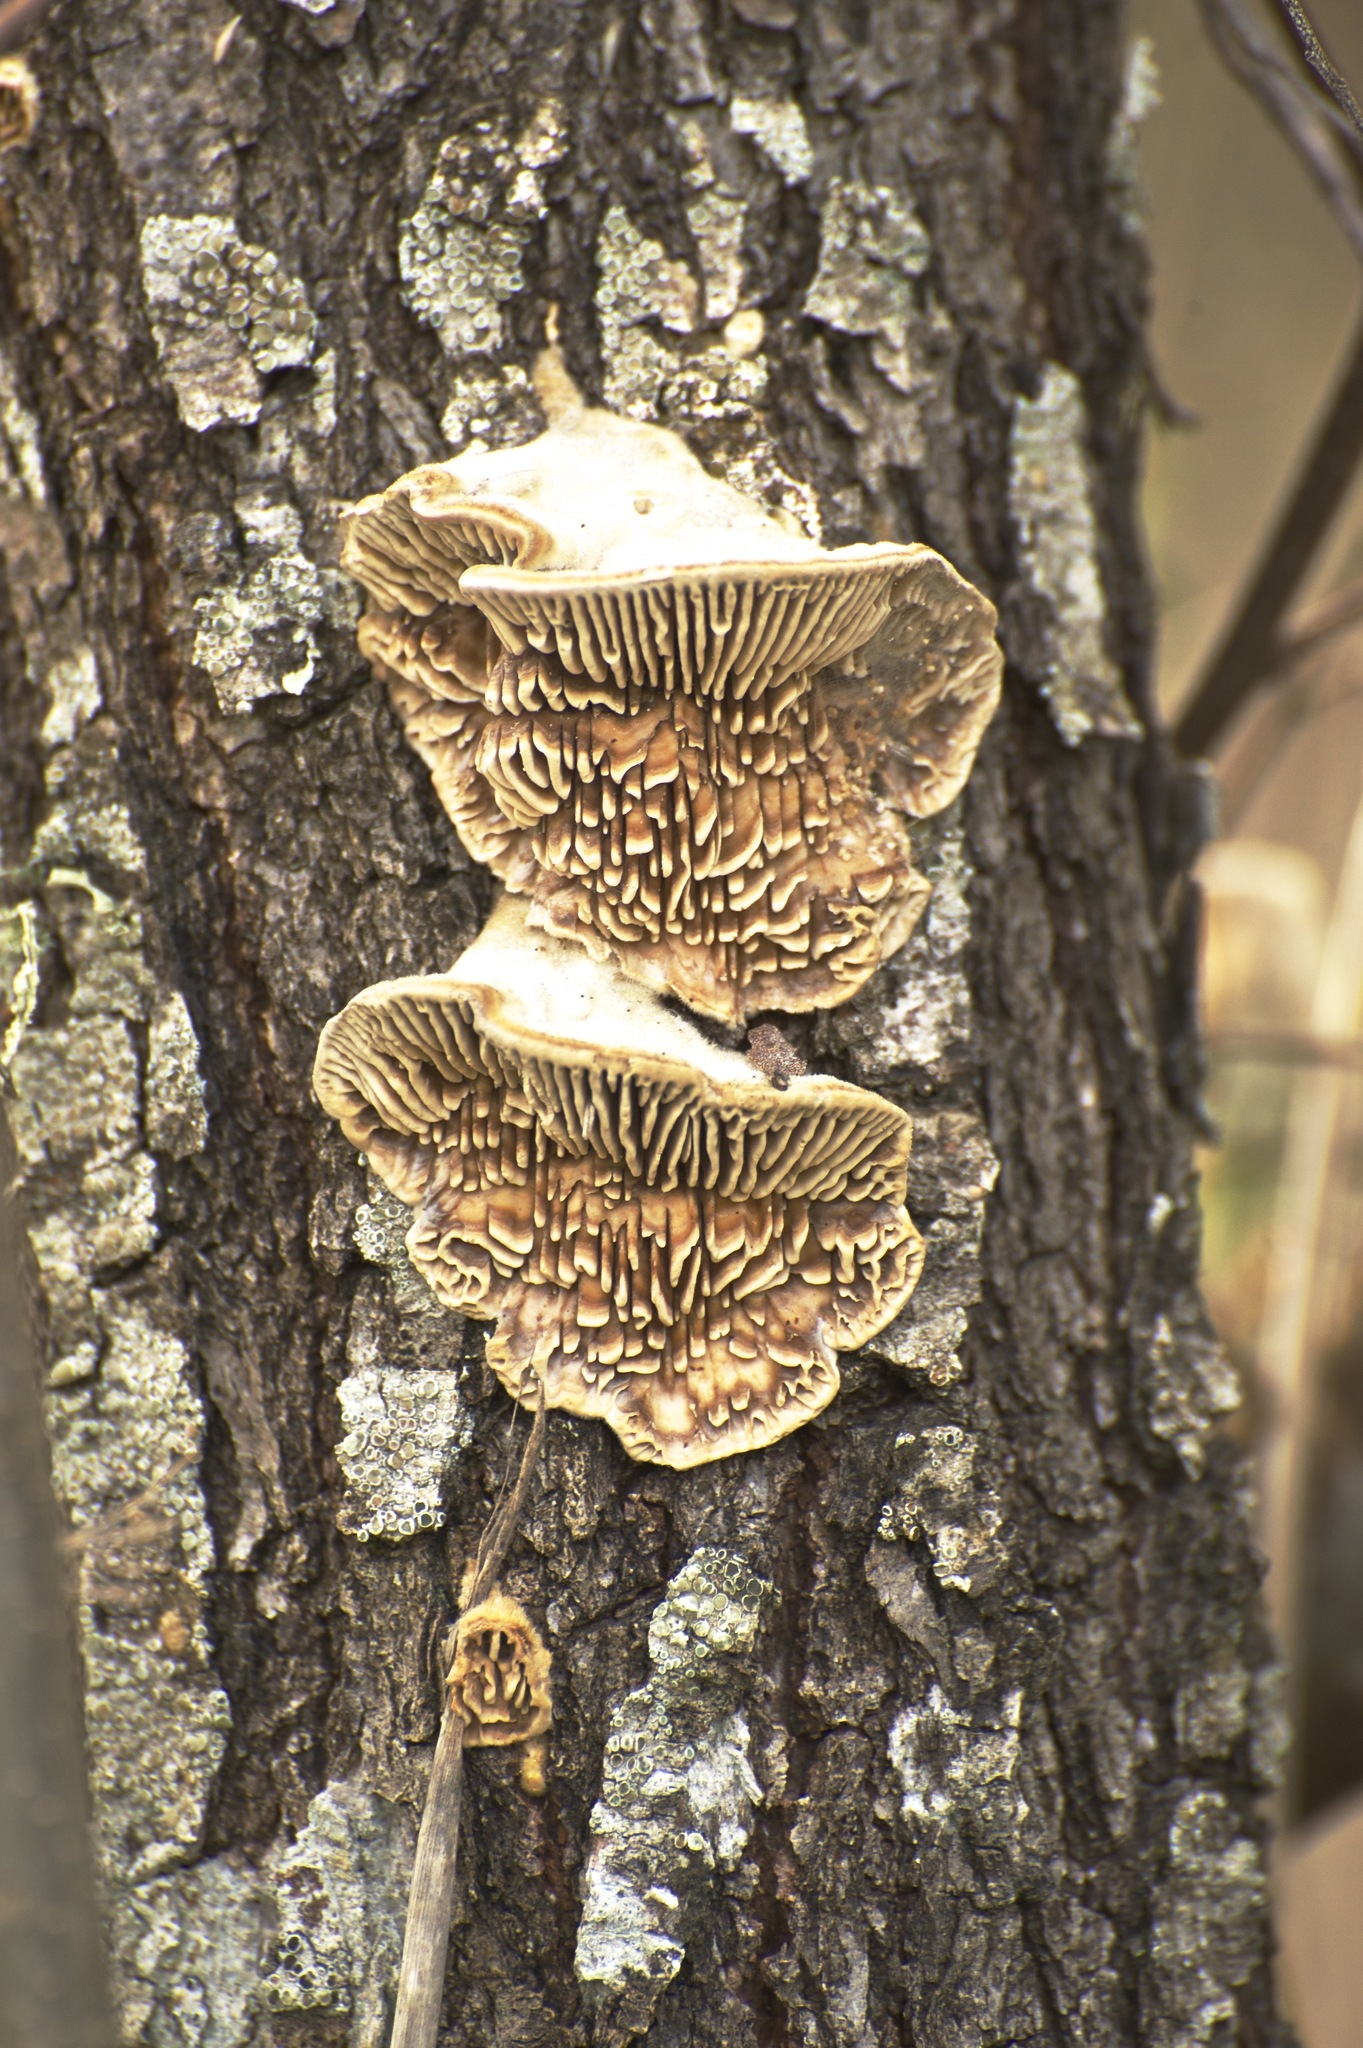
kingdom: Fungi
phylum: Basidiomycota
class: Agaricomycetes
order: Polyporales
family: Polyporaceae
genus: Lenzites
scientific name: Lenzites betulinus
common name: Birch mazegill
